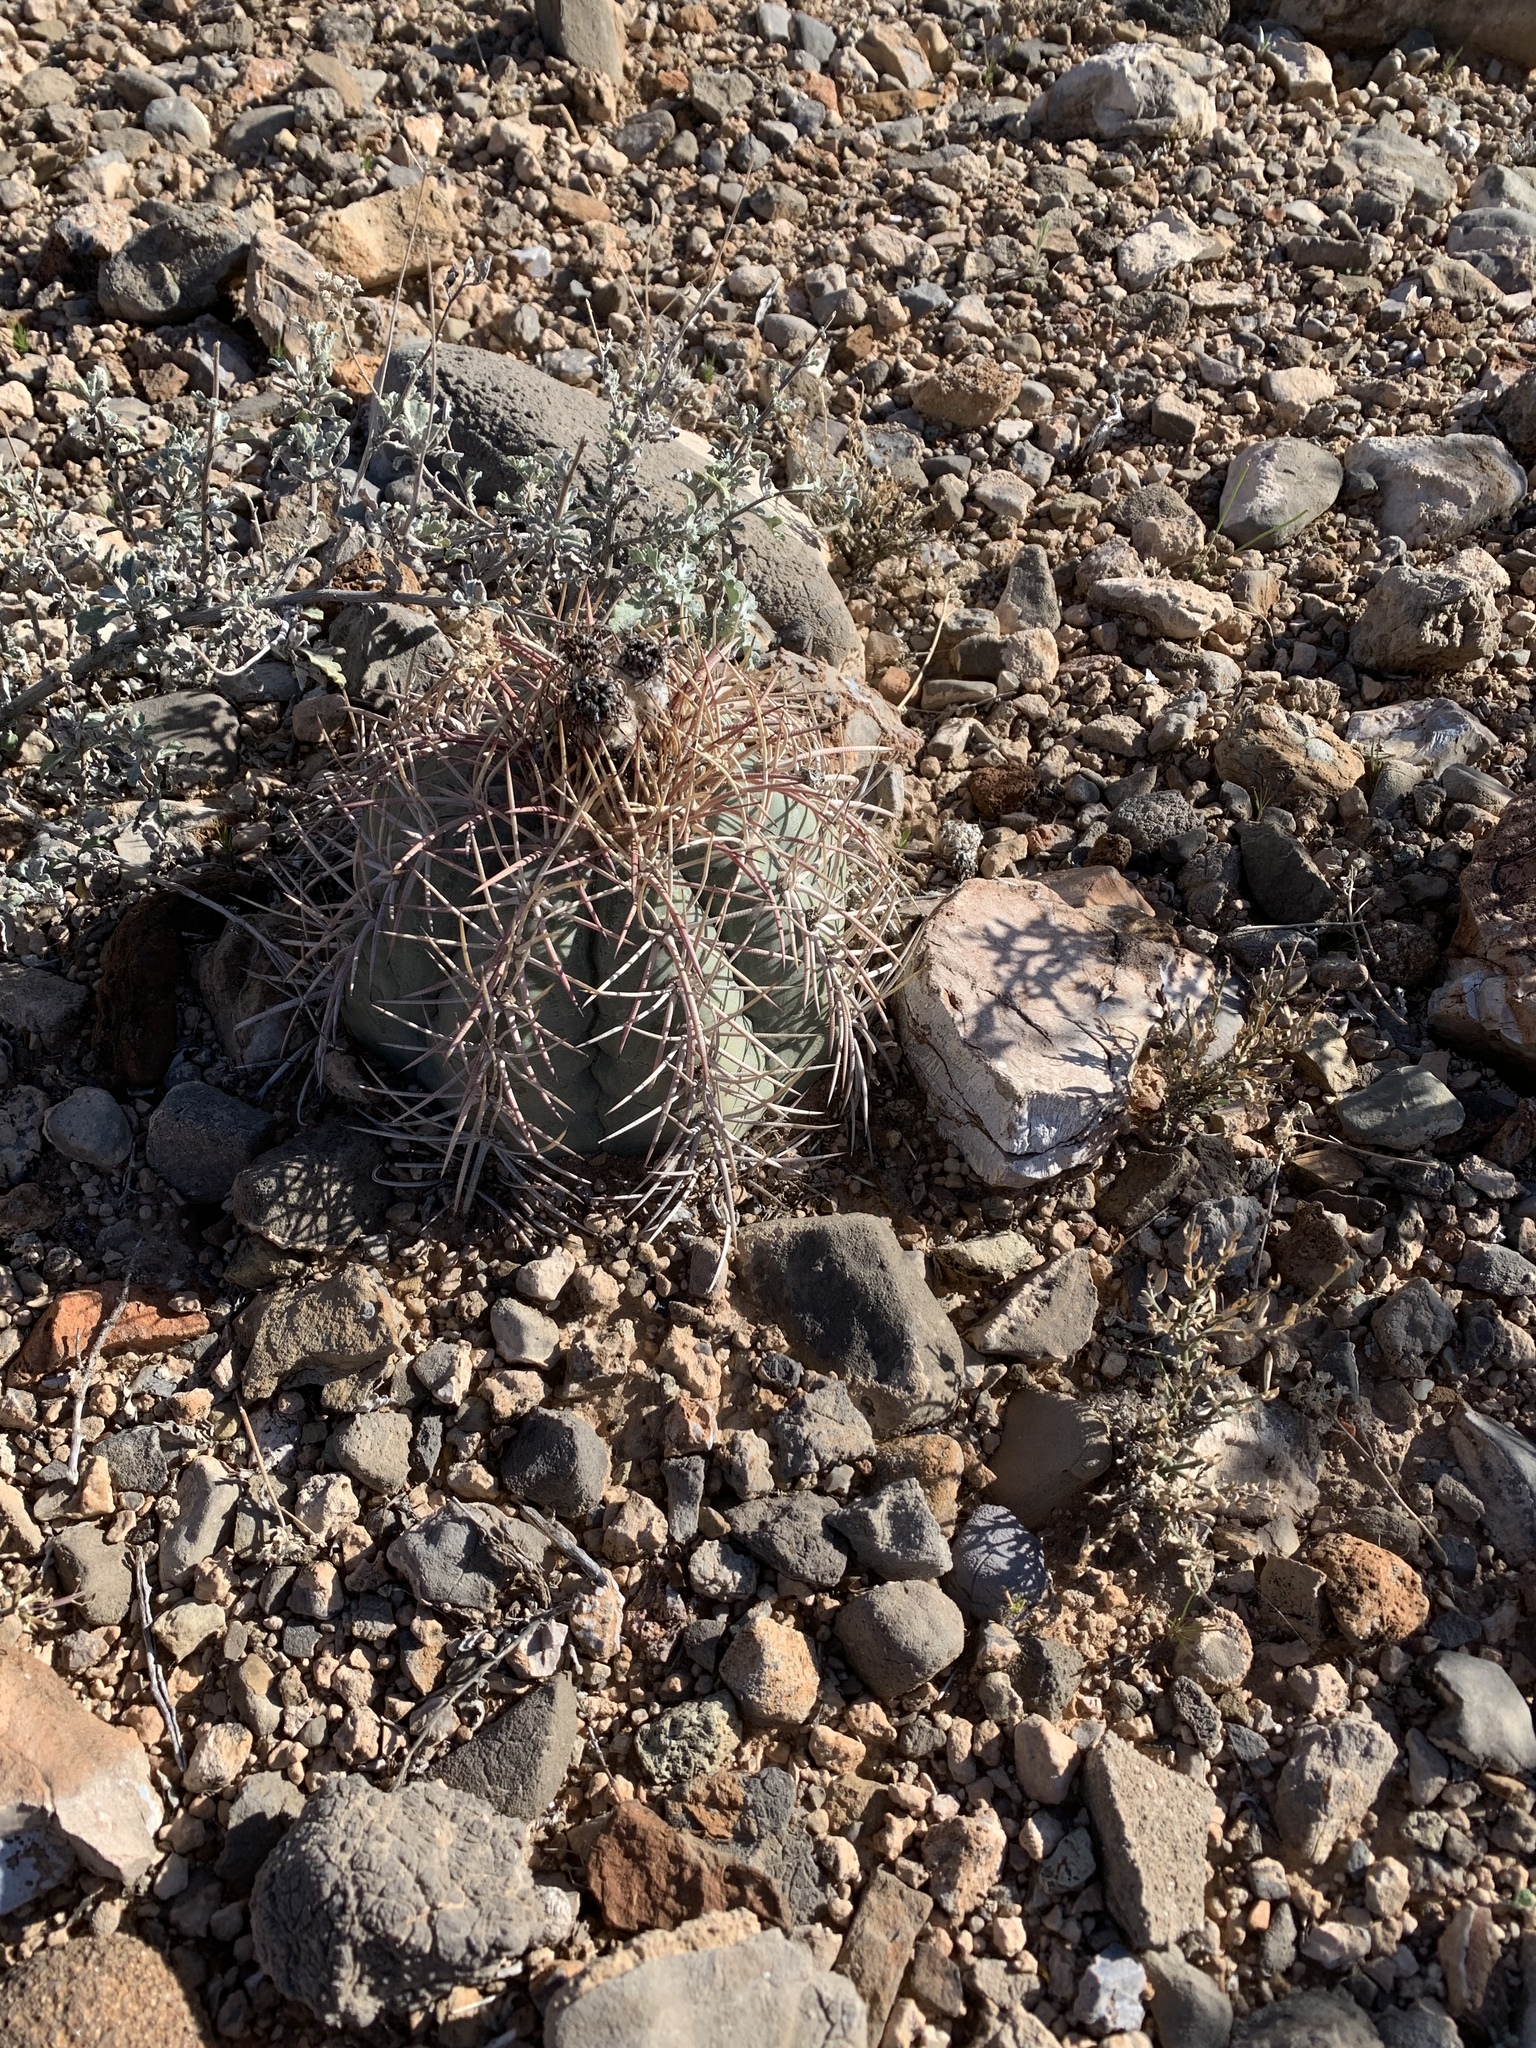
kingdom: Plantae
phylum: Tracheophyta
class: Magnoliopsida
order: Caryophyllales
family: Cactaceae
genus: Echinocactus
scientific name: Echinocactus horizonthalonius
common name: Devilshead
